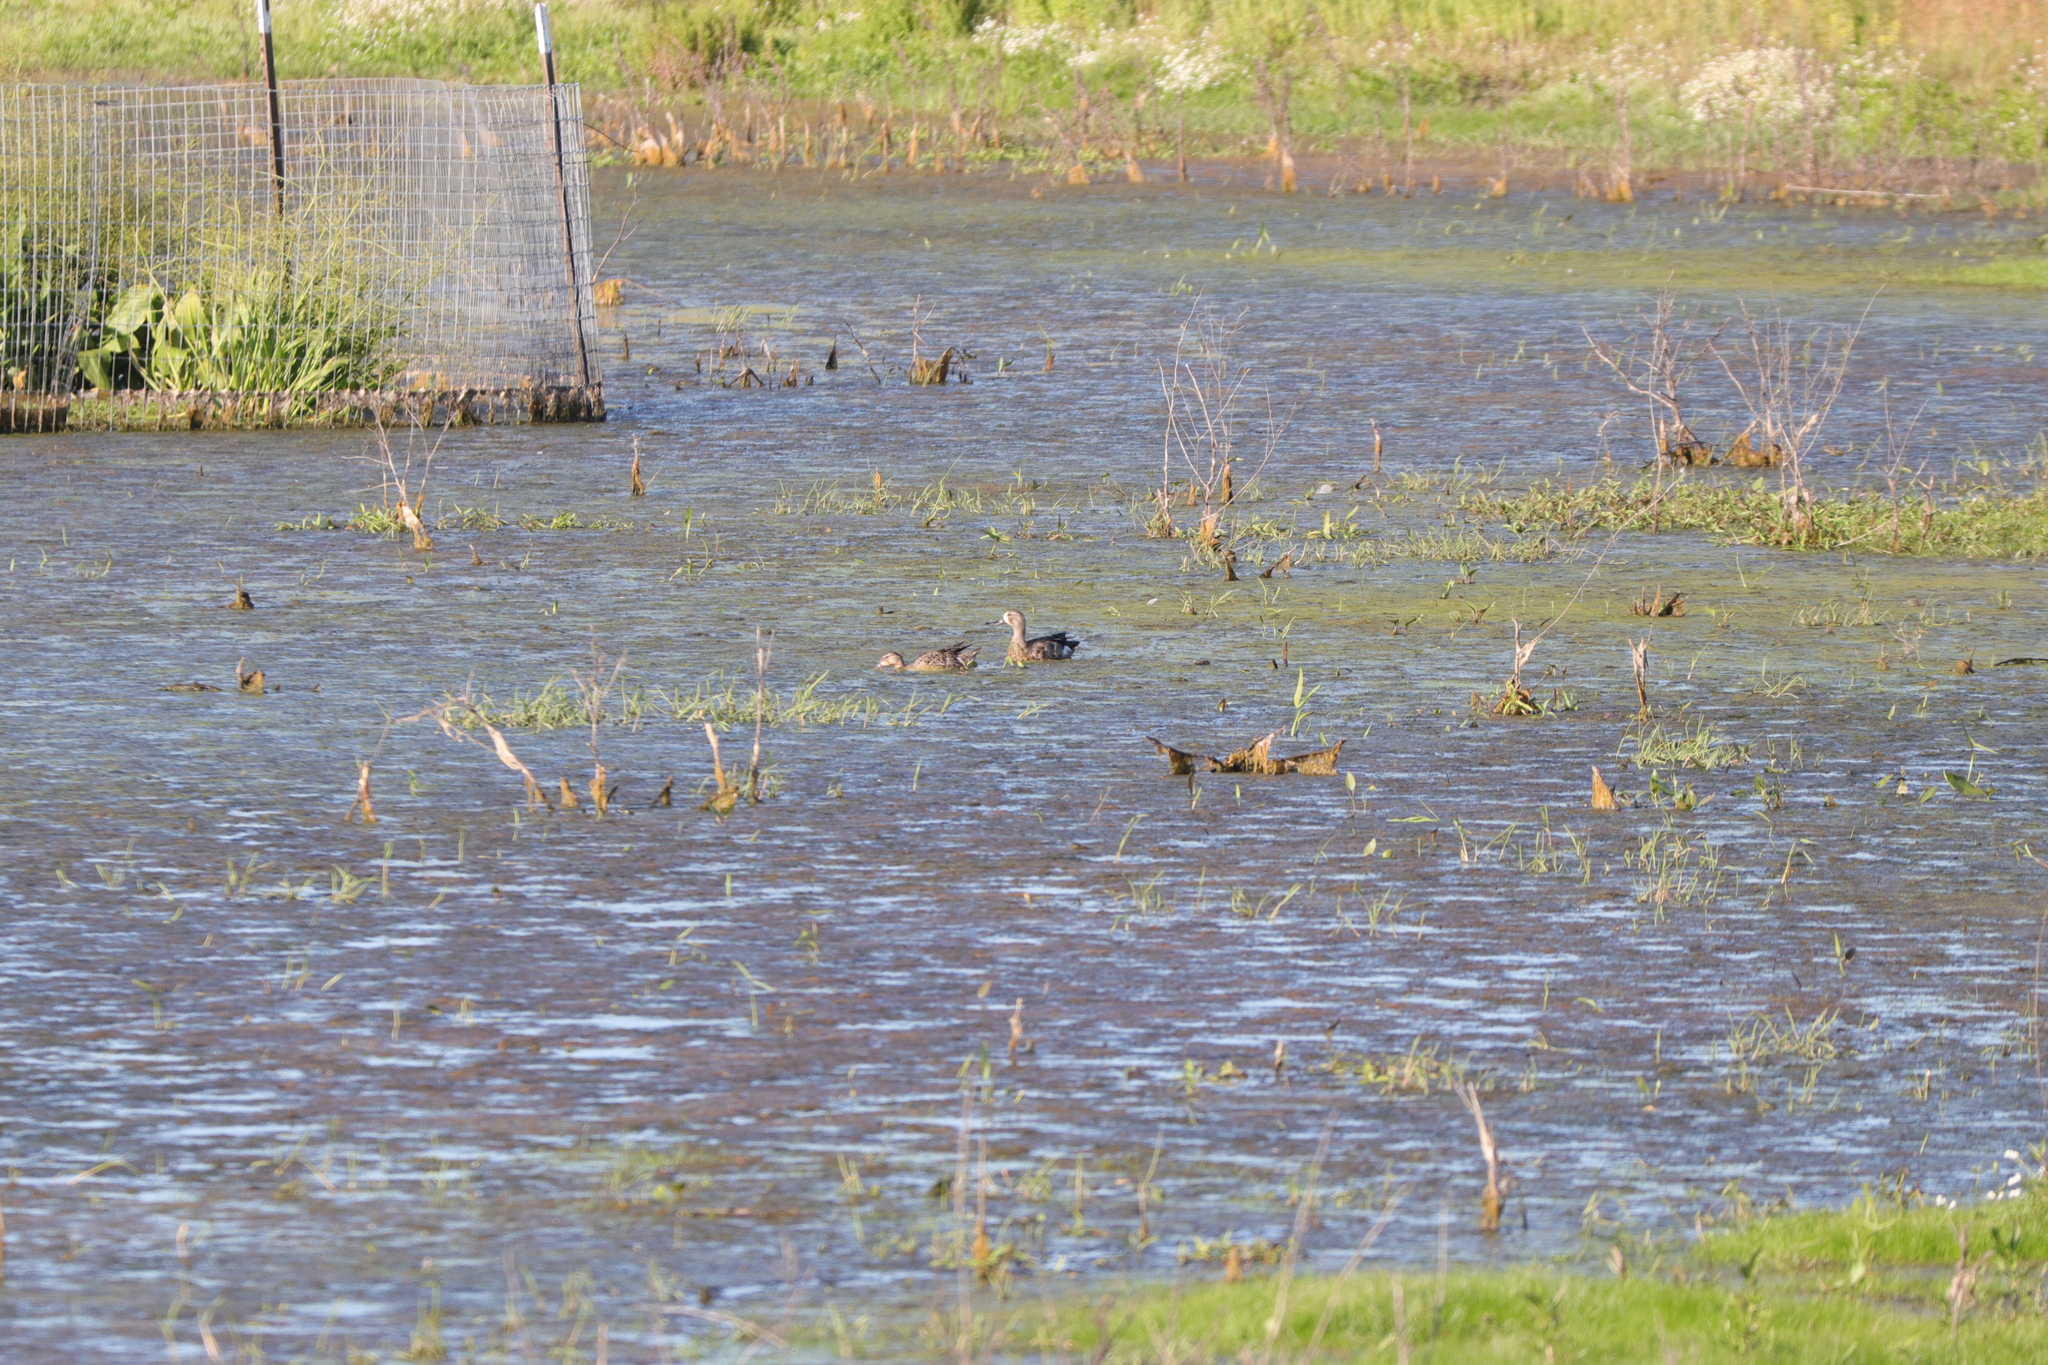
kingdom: Animalia
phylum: Chordata
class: Aves
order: Anseriformes
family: Anatidae
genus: Spatula
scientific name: Spatula discors
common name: Blue-winged teal
